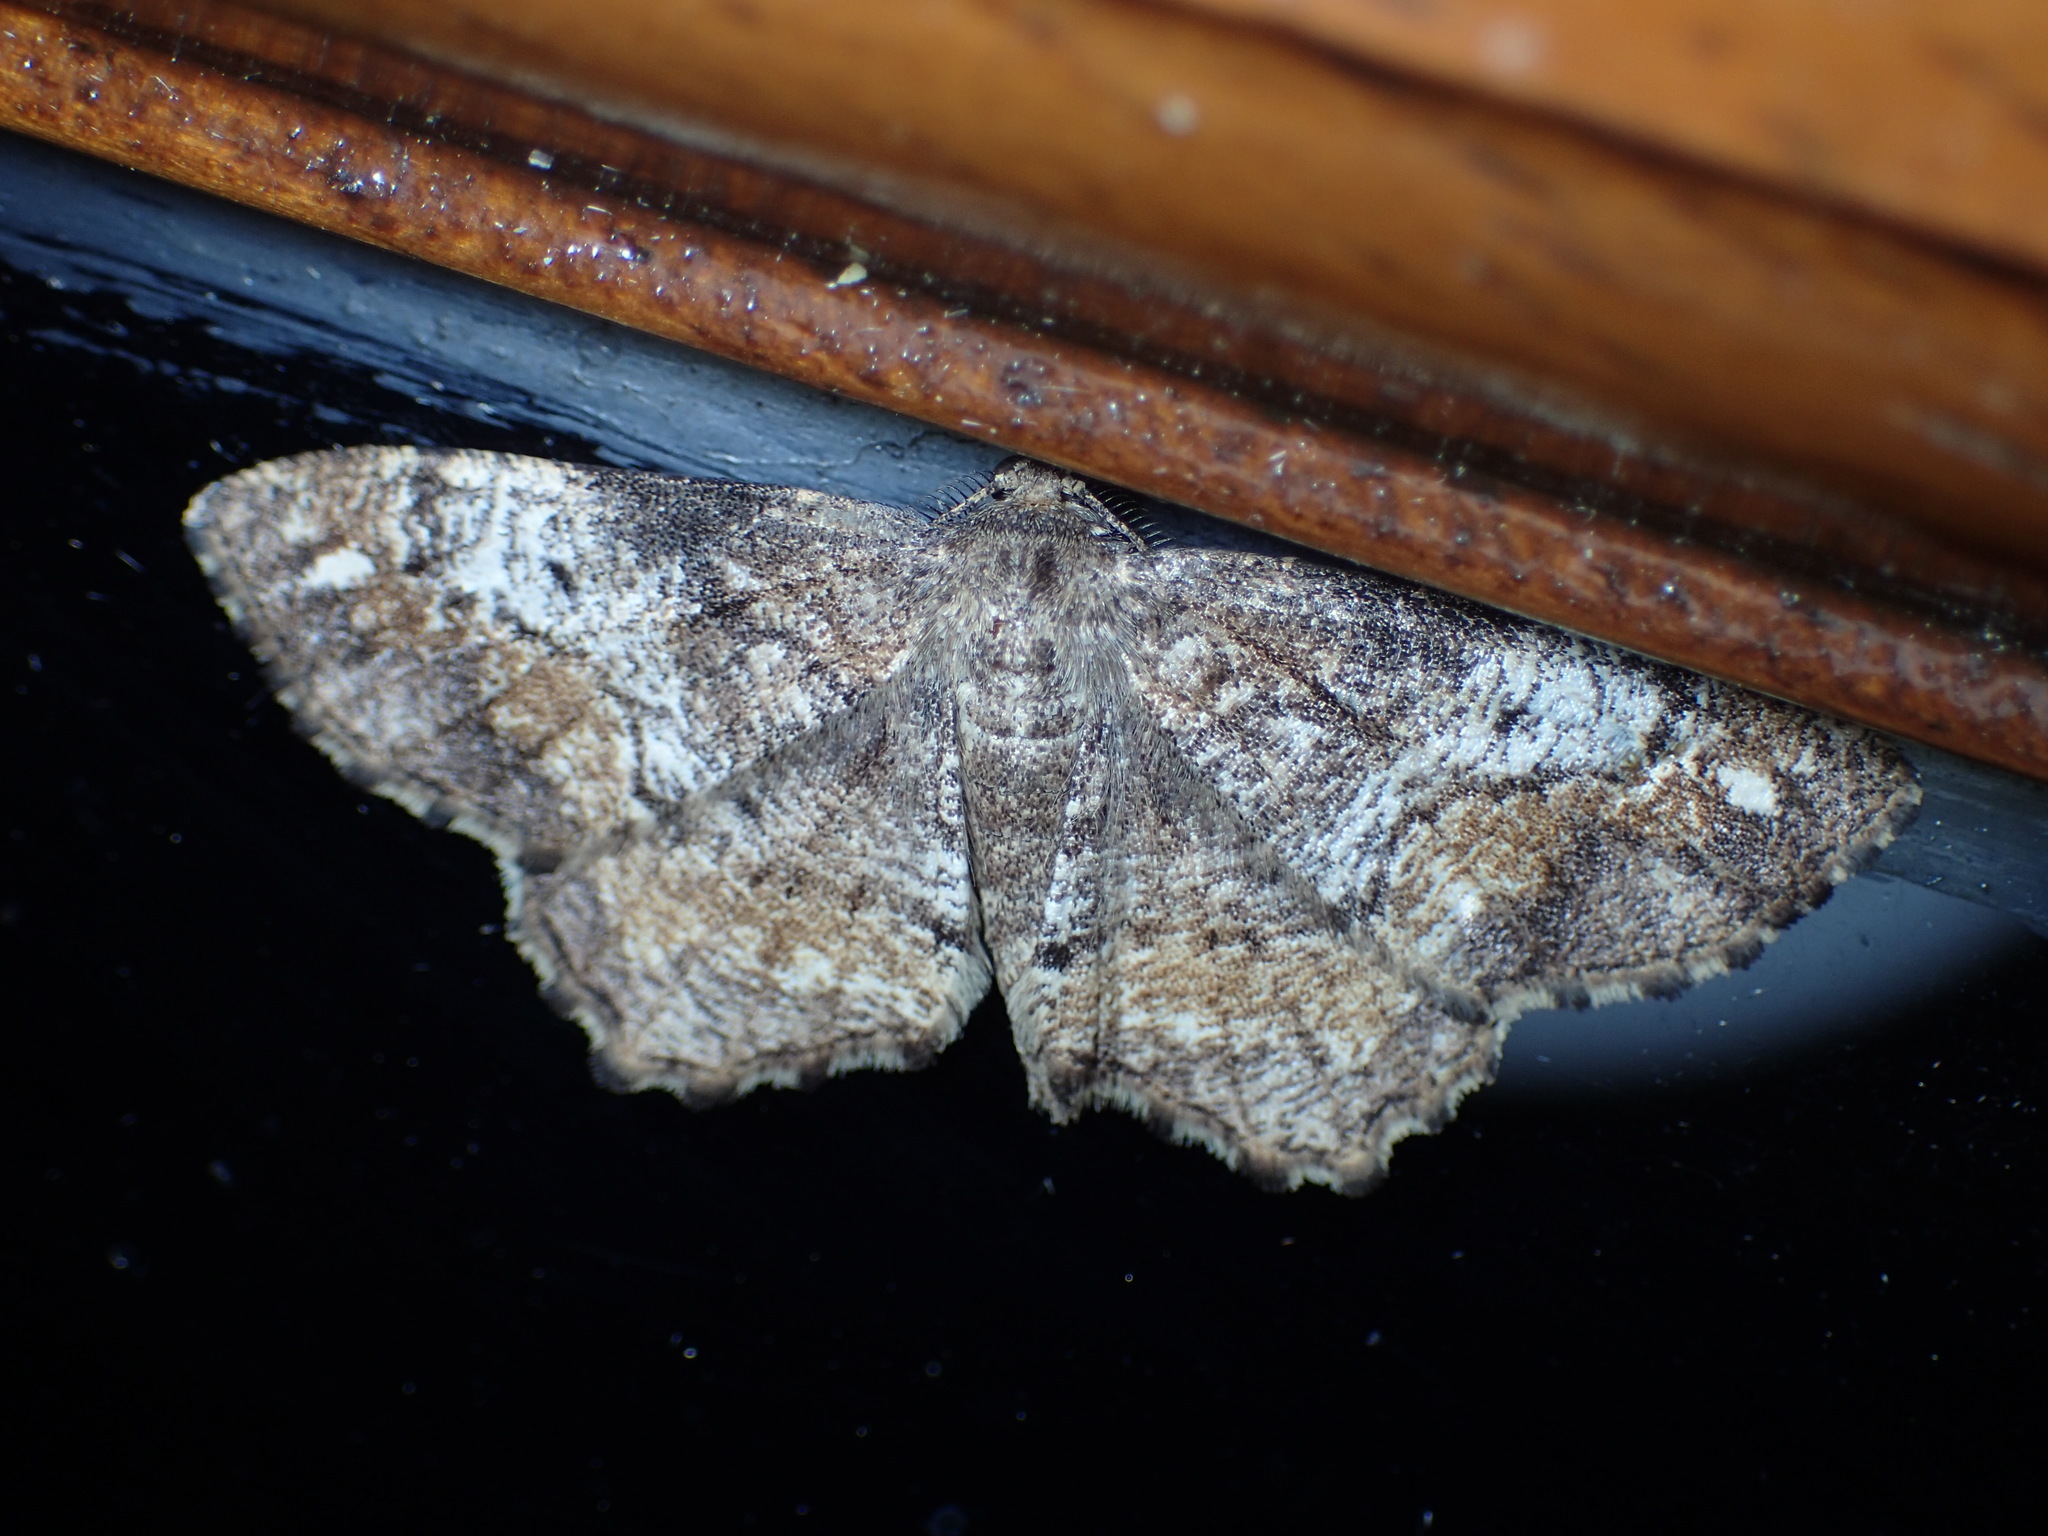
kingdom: Animalia
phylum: Arthropoda
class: Insecta
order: Lepidoptera
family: Geometridae
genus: Hypagyrtis
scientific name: Hypagyrtis unipunctata
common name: One-spotted variant
